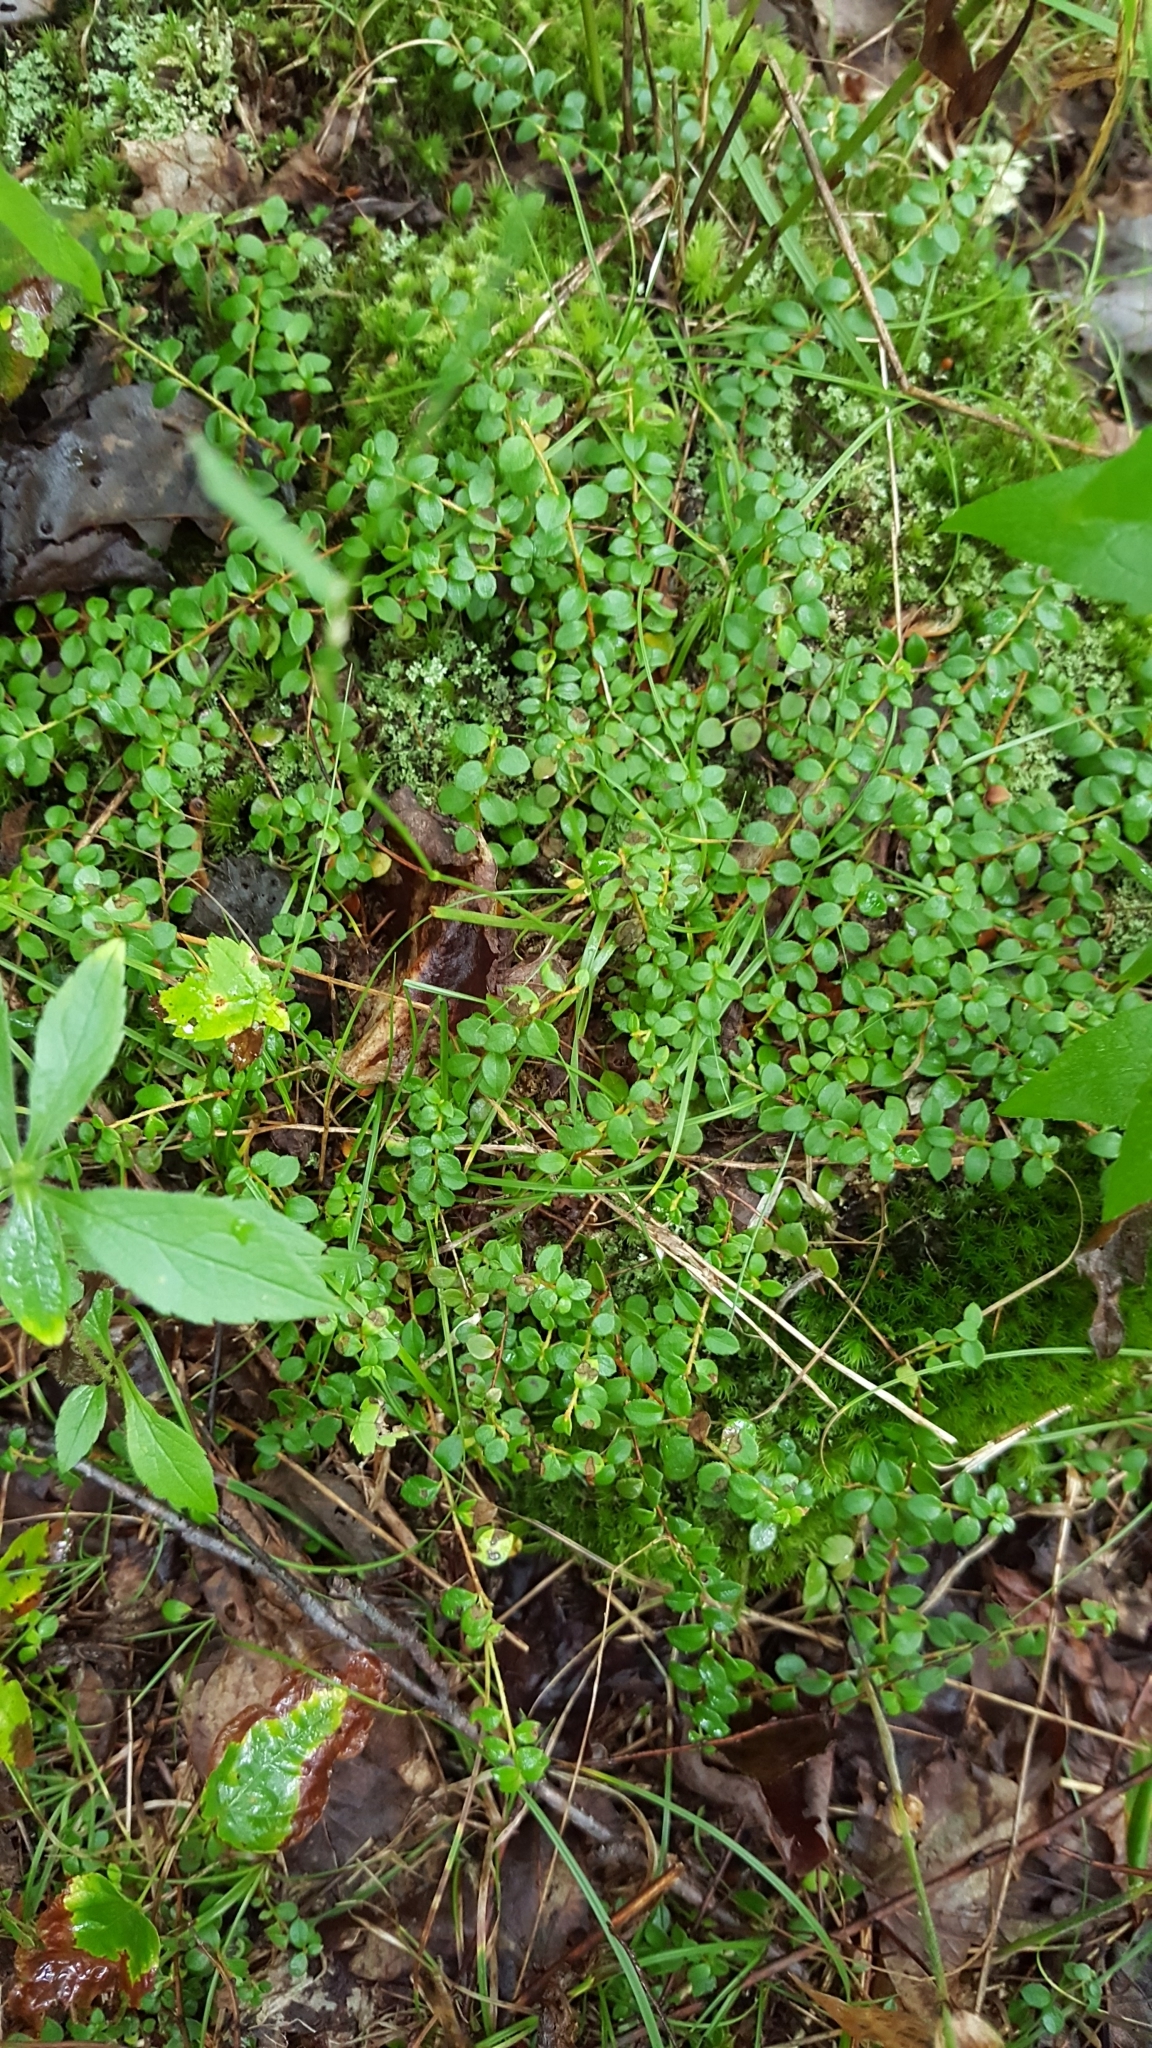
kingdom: Plantae
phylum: Tracheophyta
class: Magnoliopsida
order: Ericales
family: Ericaceae
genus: Gaultheria
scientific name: Gaultheria hispidula
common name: Cancer wintergreen
